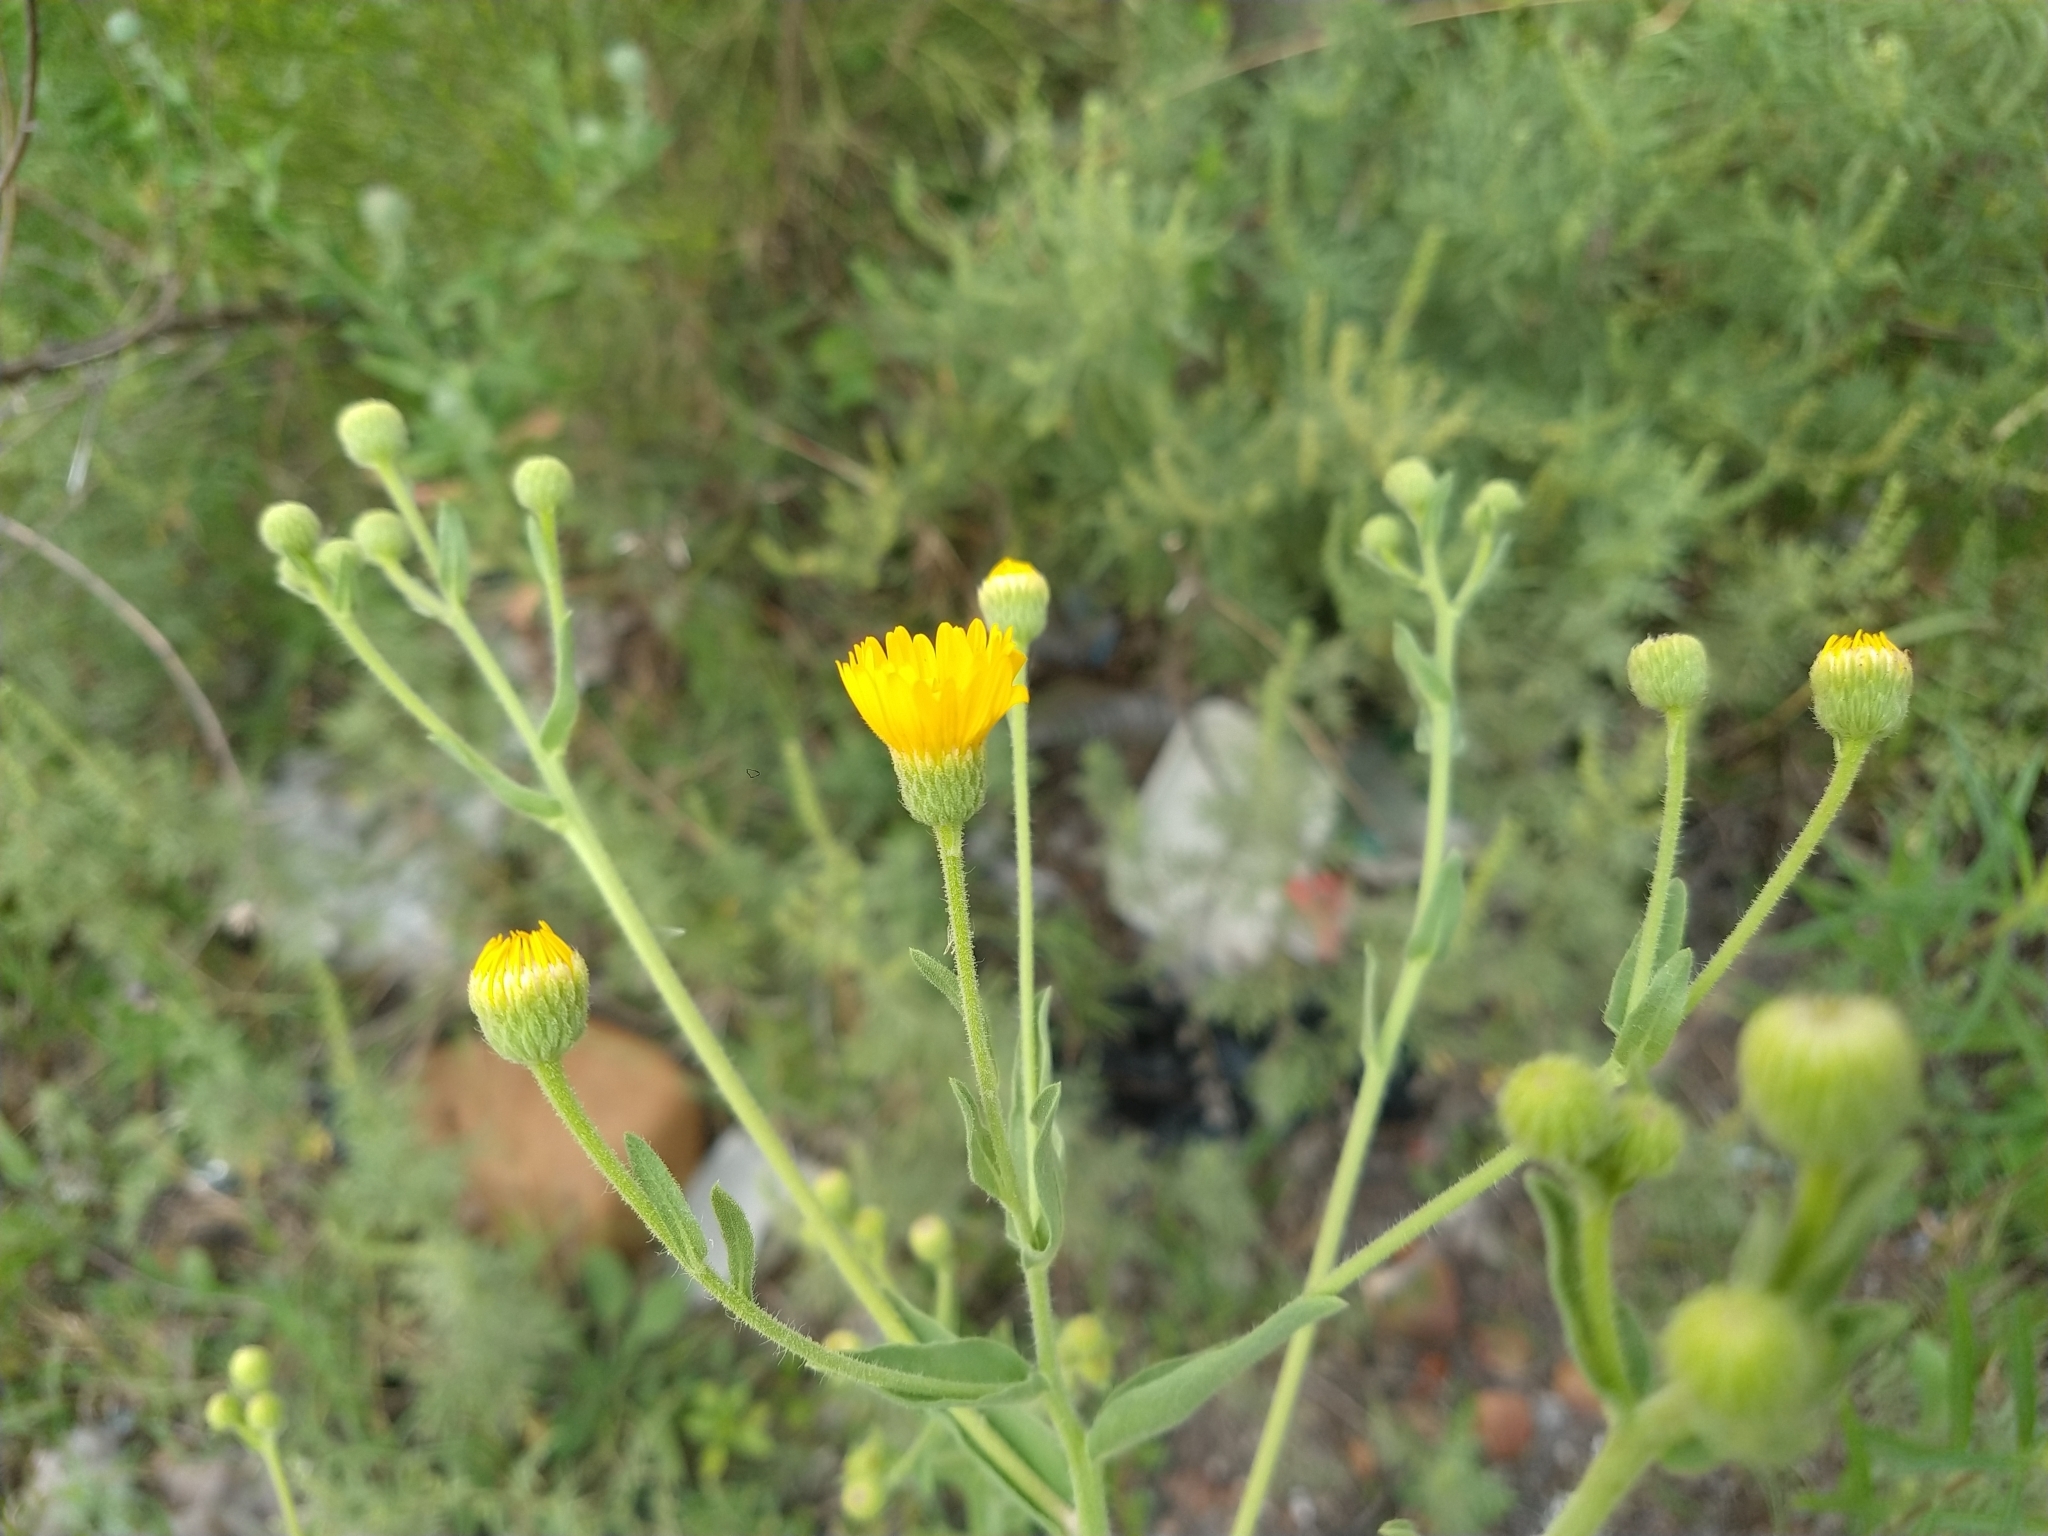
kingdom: Plantae
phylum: Tracheophyta
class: Magnoliopsida
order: Asterales
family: Asteraceae
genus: Heterotheca
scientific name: Heterotheca subaxillaris
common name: Camphorweed
